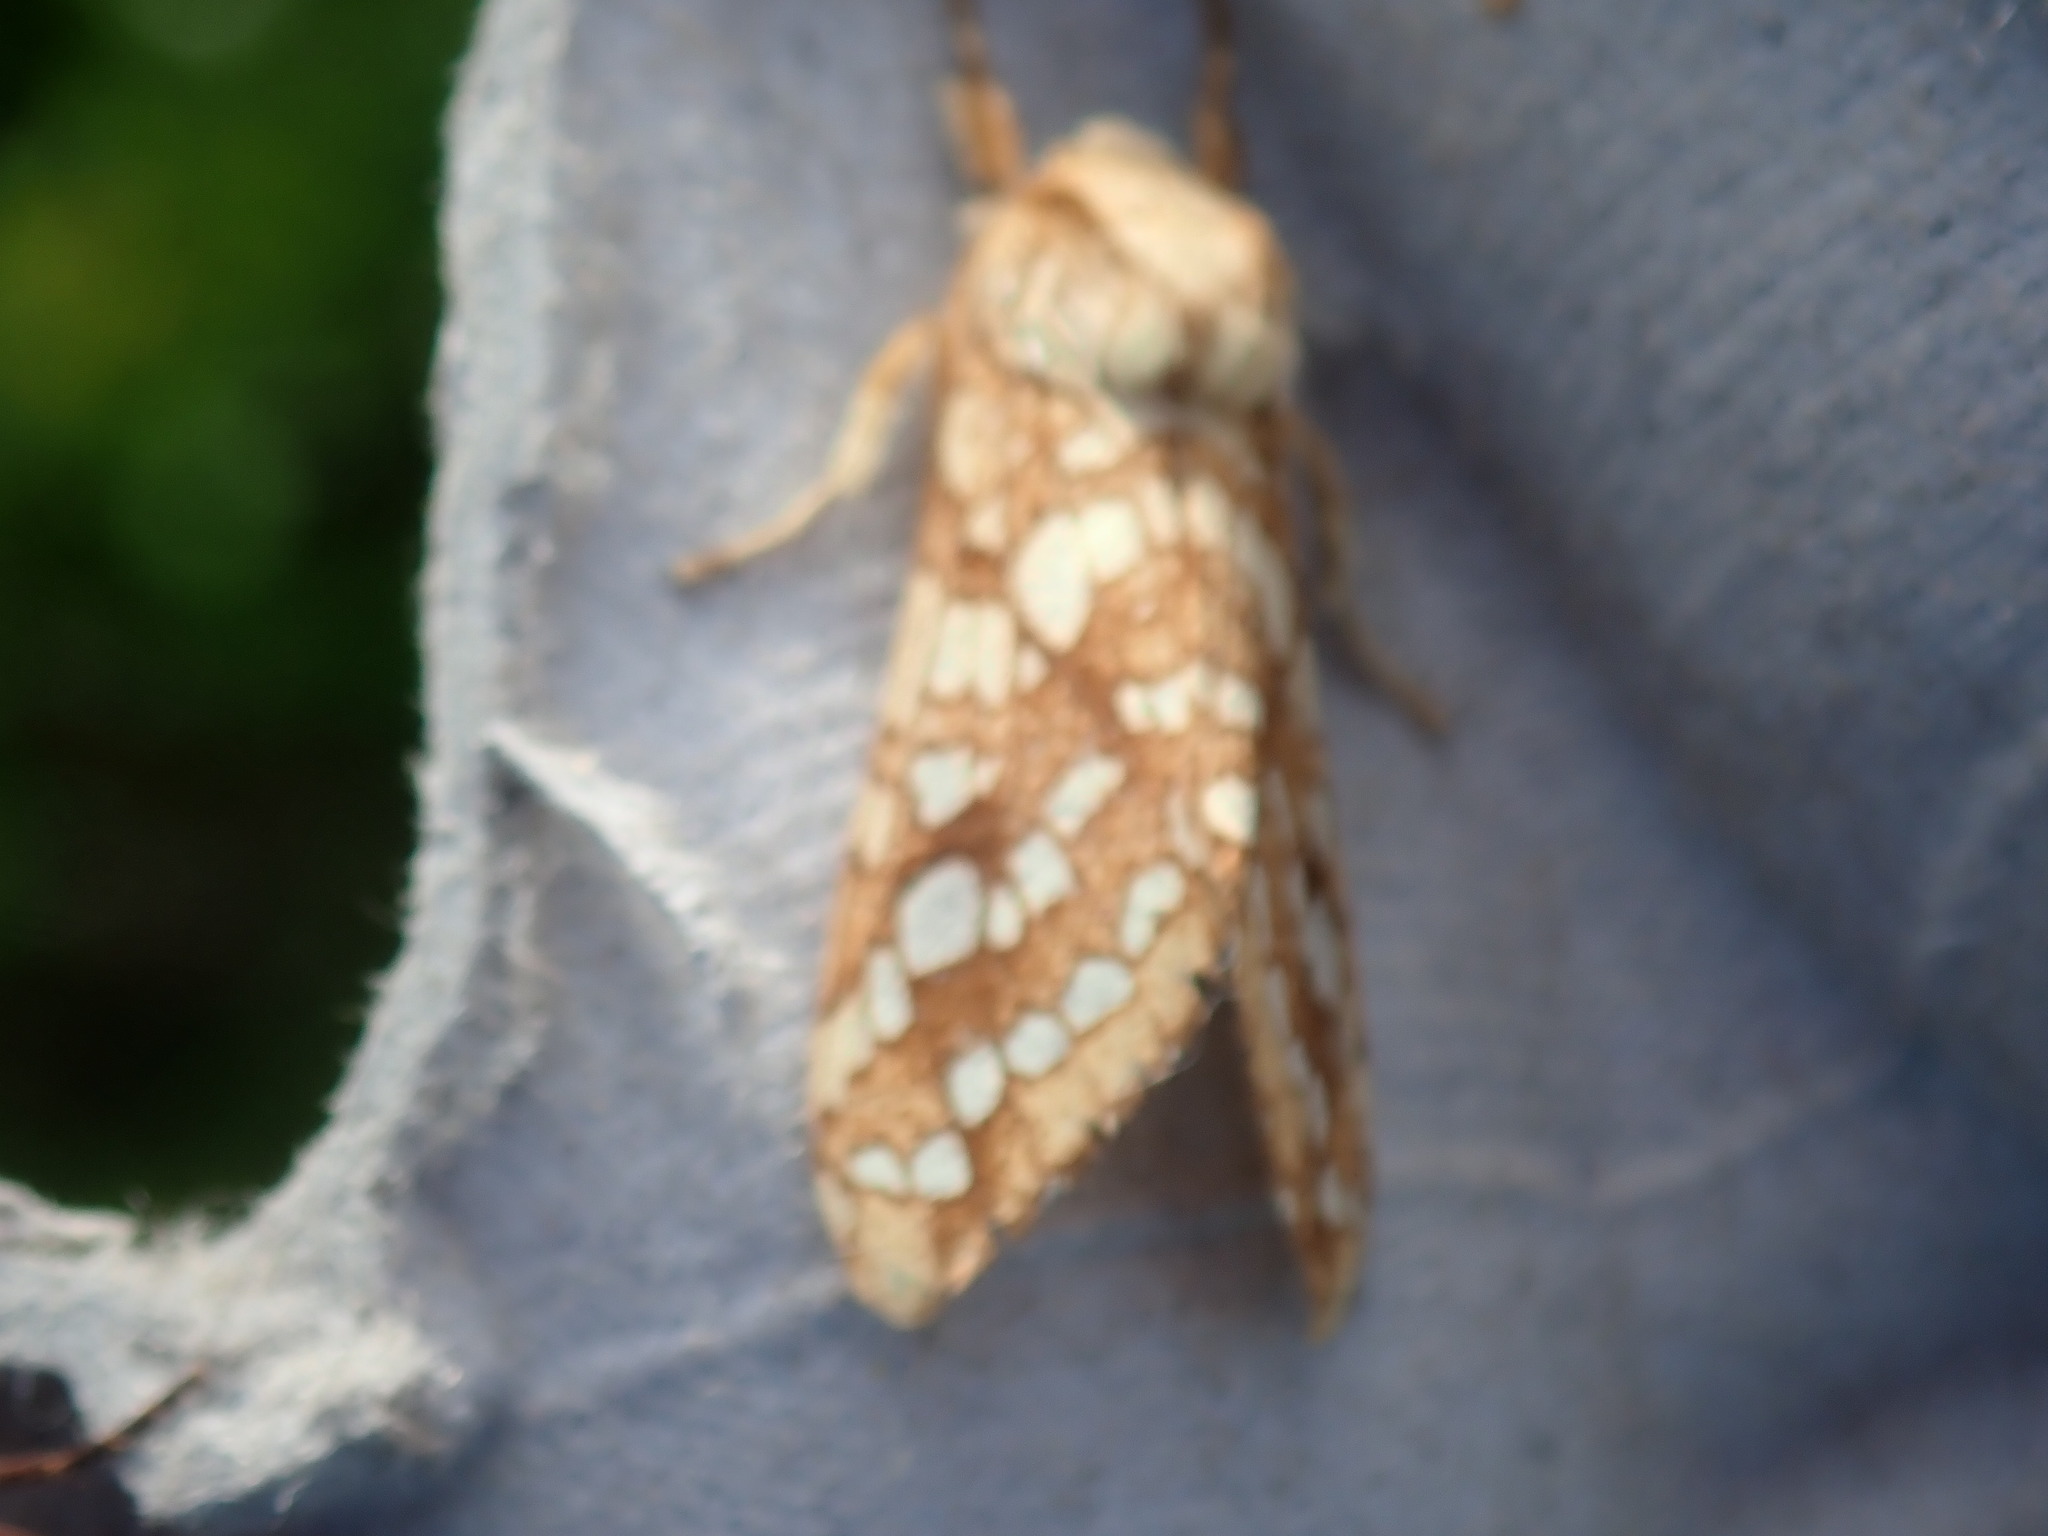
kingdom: Animalia
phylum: Arthropoda
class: Insecta
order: Lepidoptera
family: Erebidae
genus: Lophocampa
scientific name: Lophocampa caryae
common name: Hickory tussock moth
